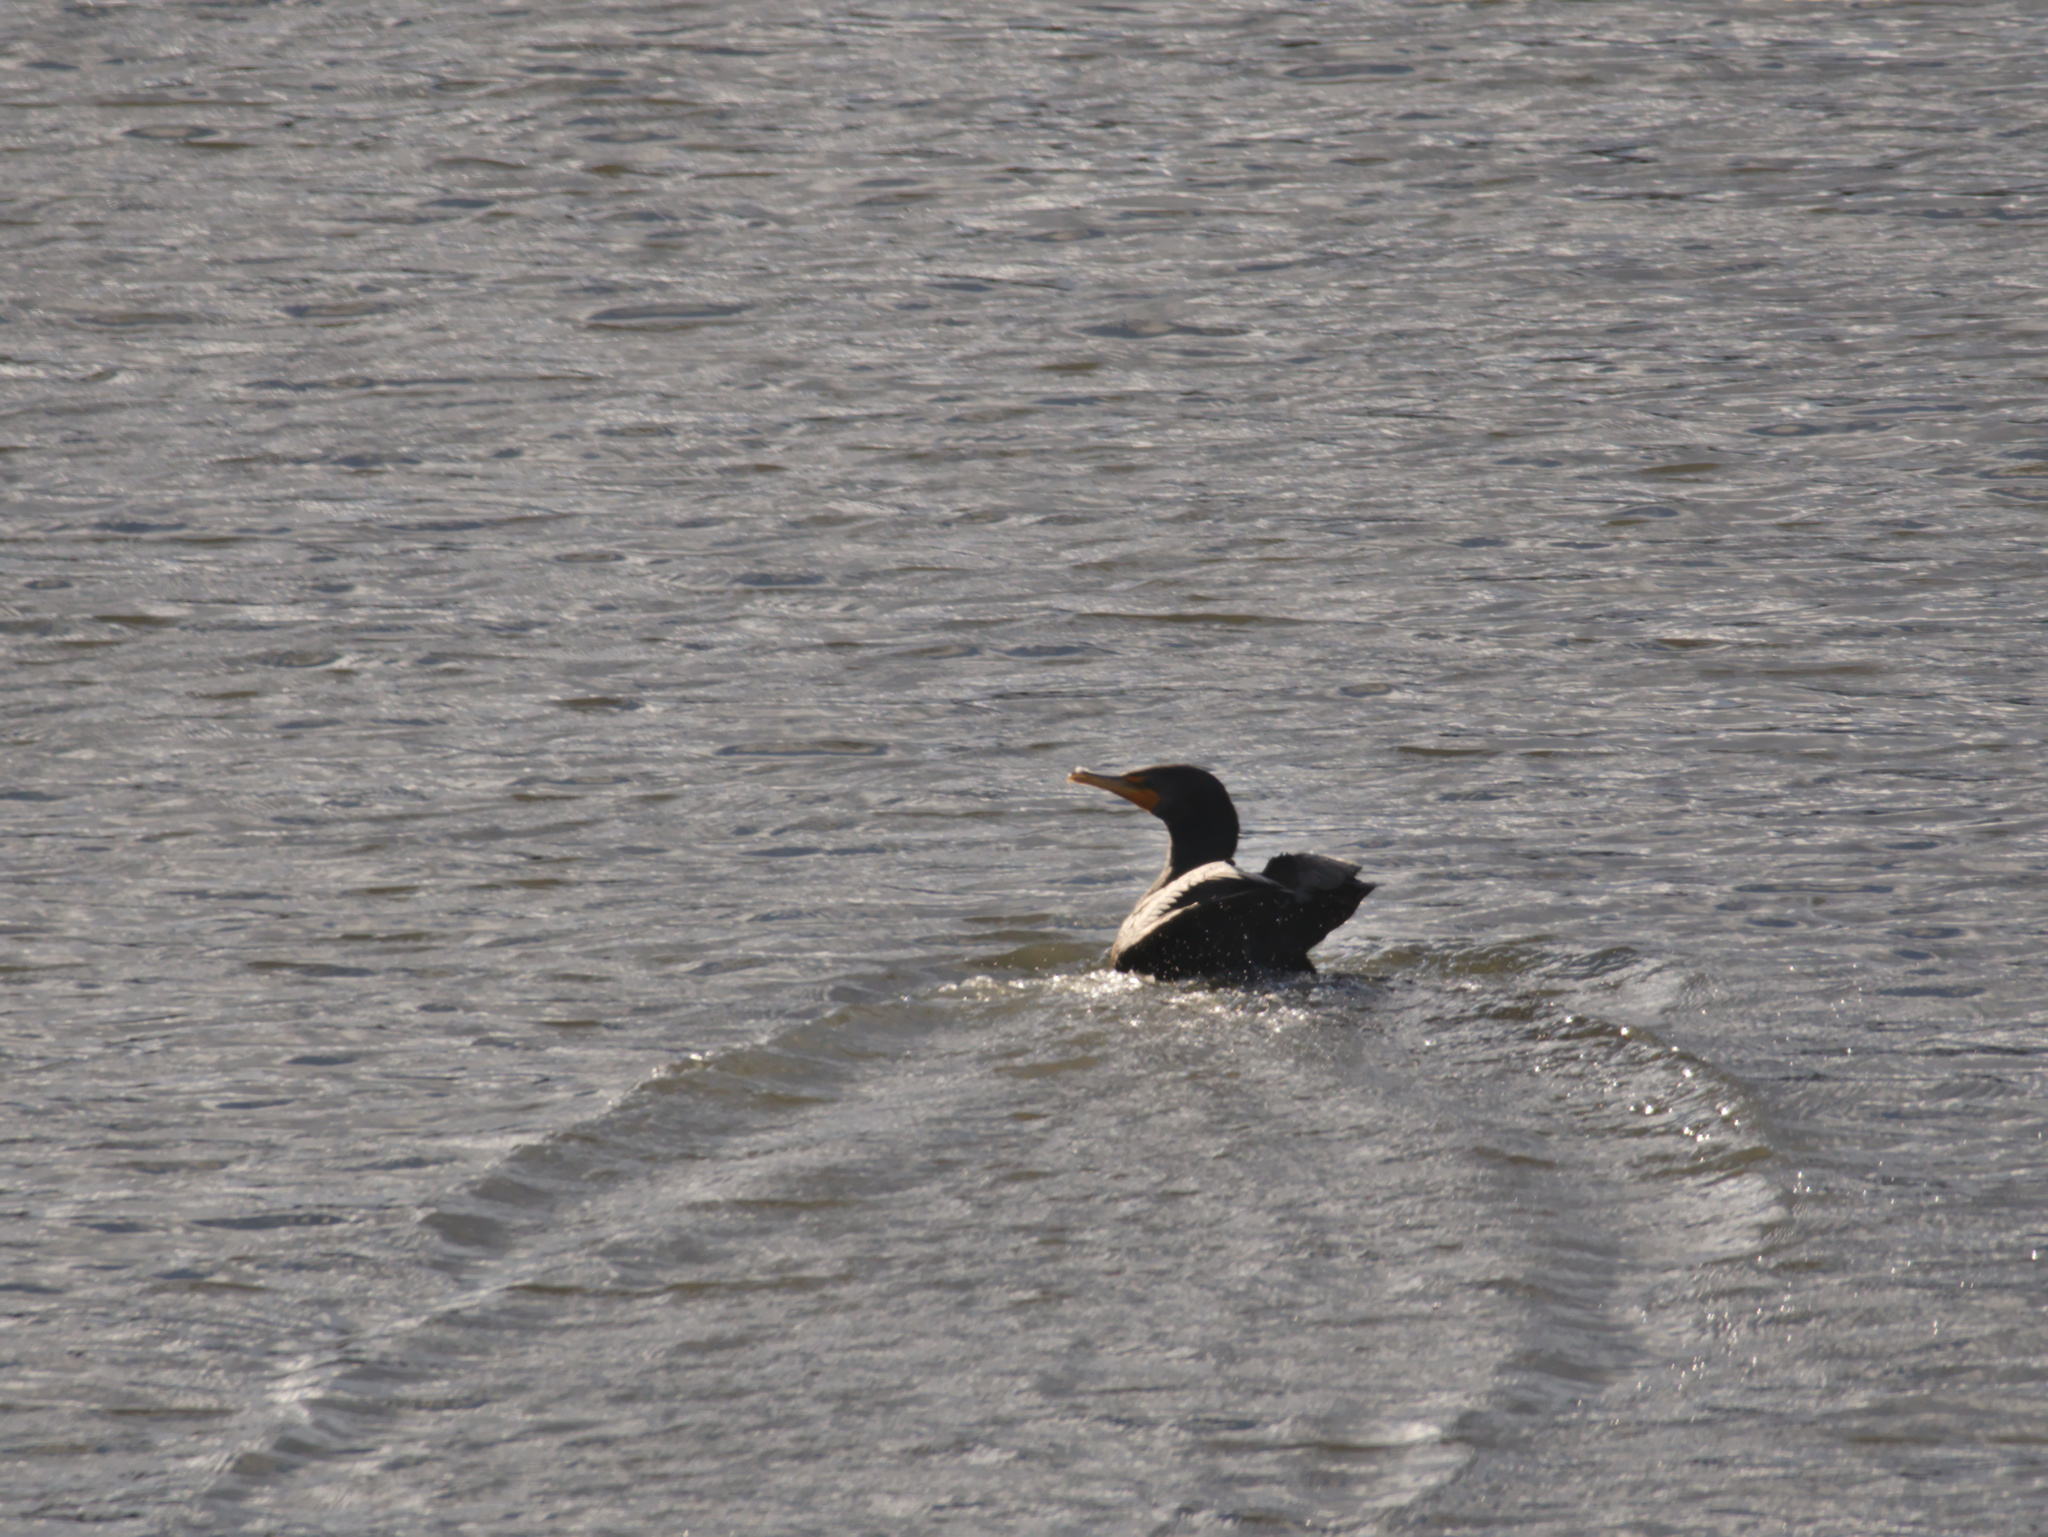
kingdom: Animalia
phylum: Chordata
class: Aves
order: Suliformes
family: Phalacrocoracidae
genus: Phalacrocorax
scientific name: Phalacrocorax auritus
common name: Double-crested cormorant
